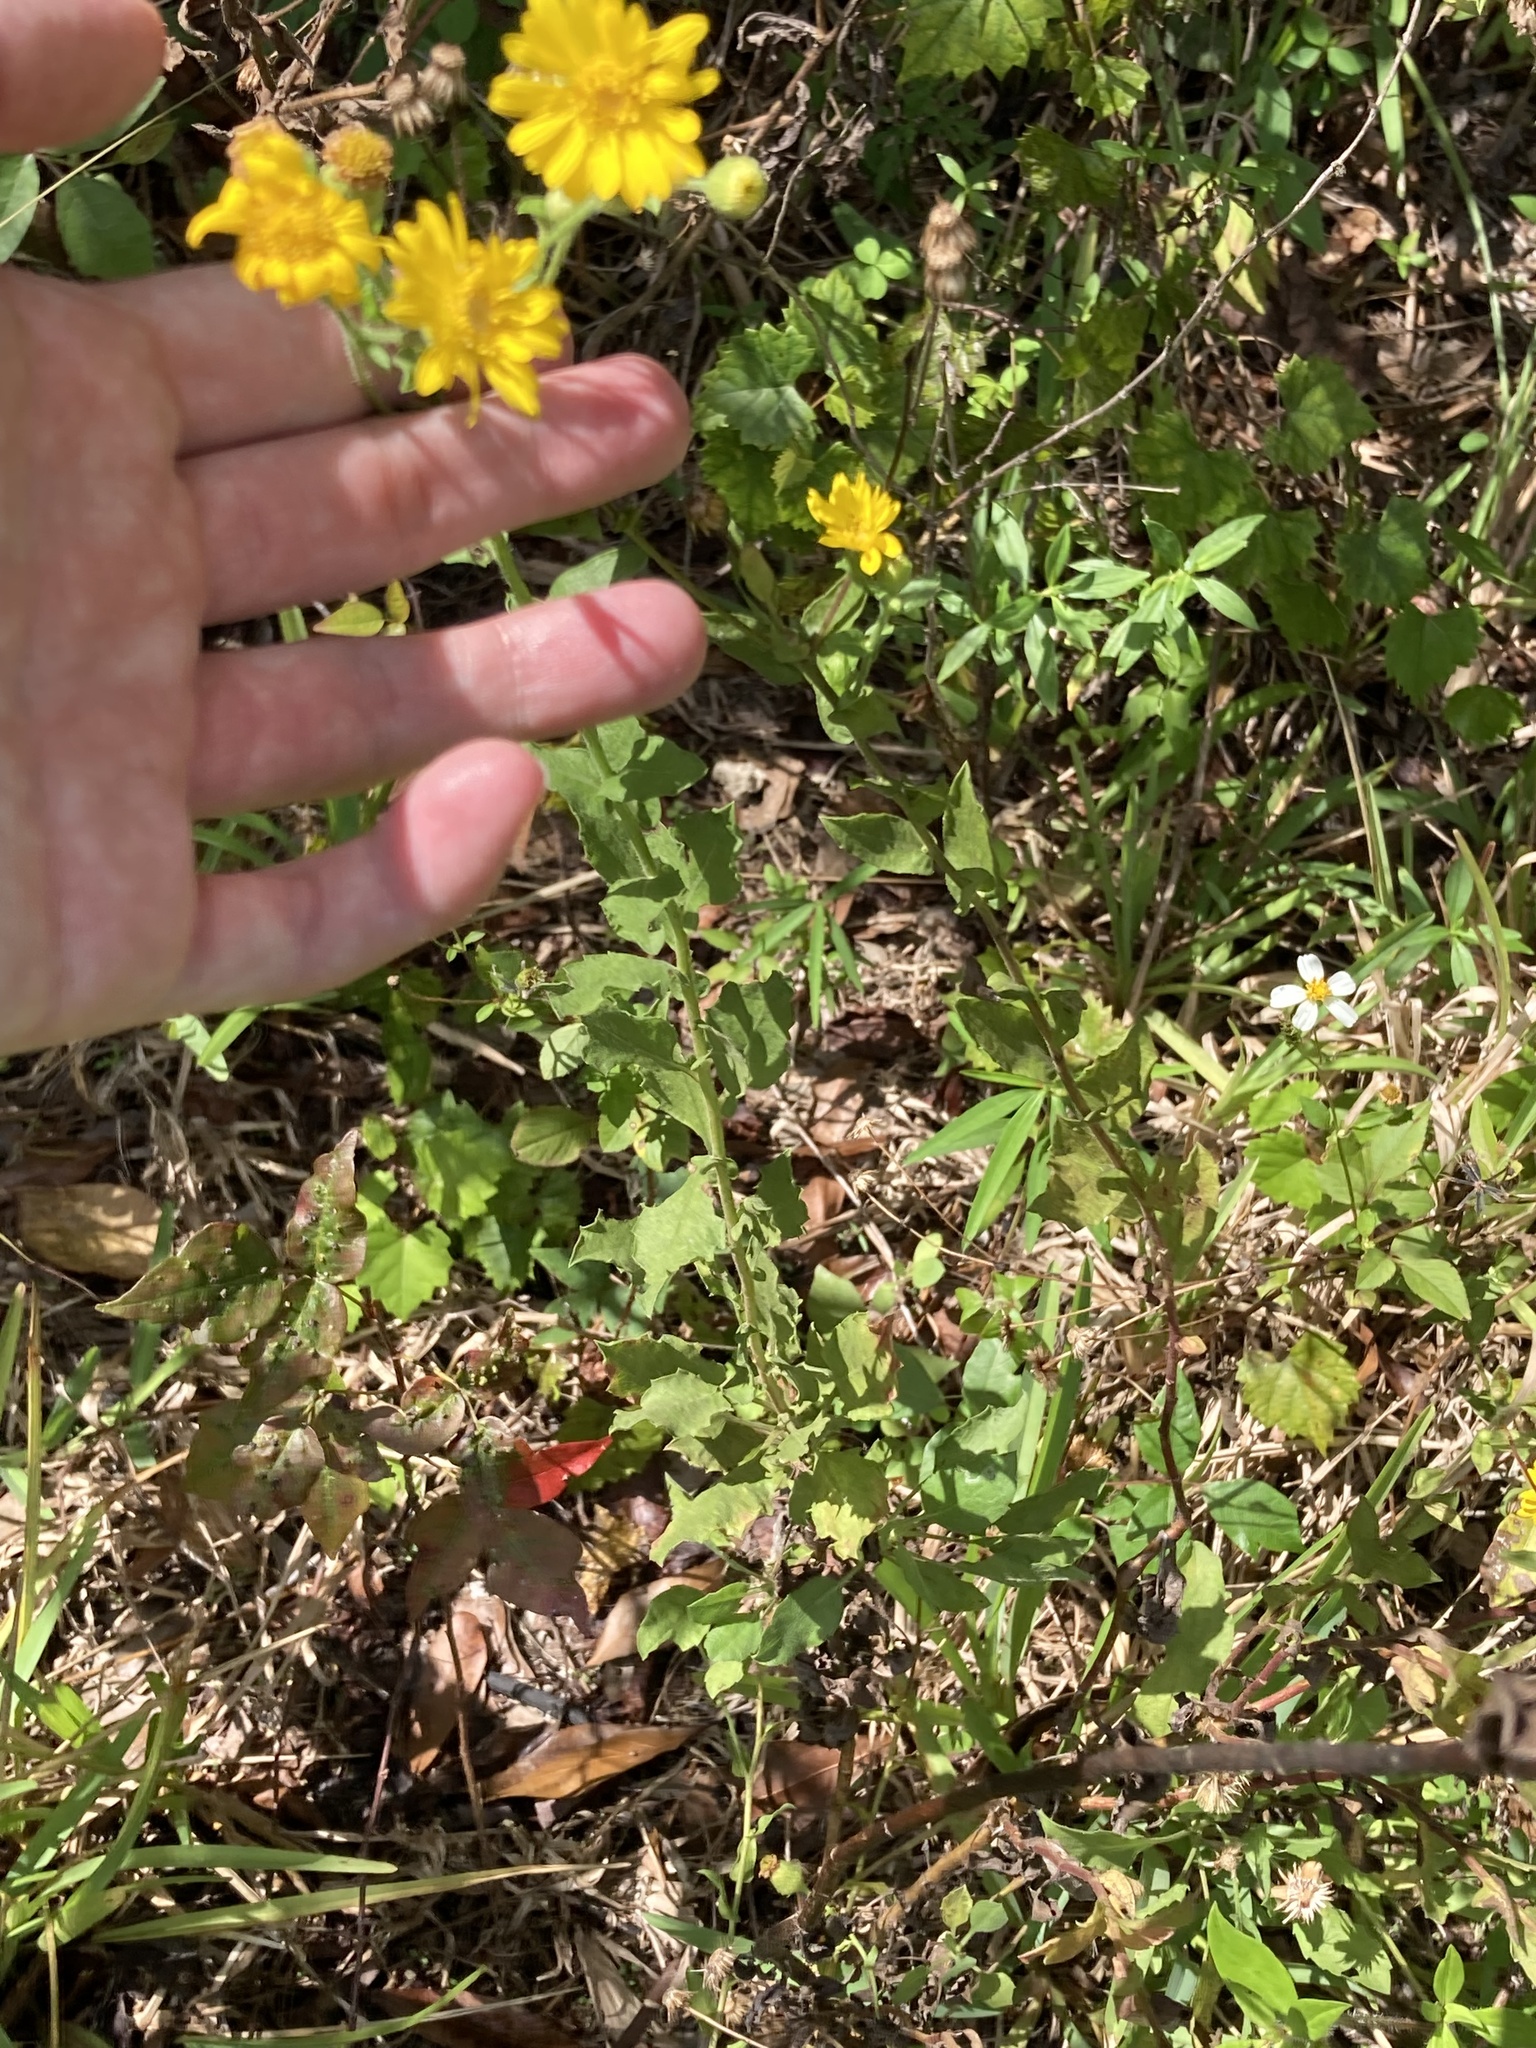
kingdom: Plantae
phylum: Tracheophyta
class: Magnoliopsida
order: Asterales
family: Asteraceae
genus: Heterotheca
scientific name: Heterotheca subaxillaris
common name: Camphorweed
